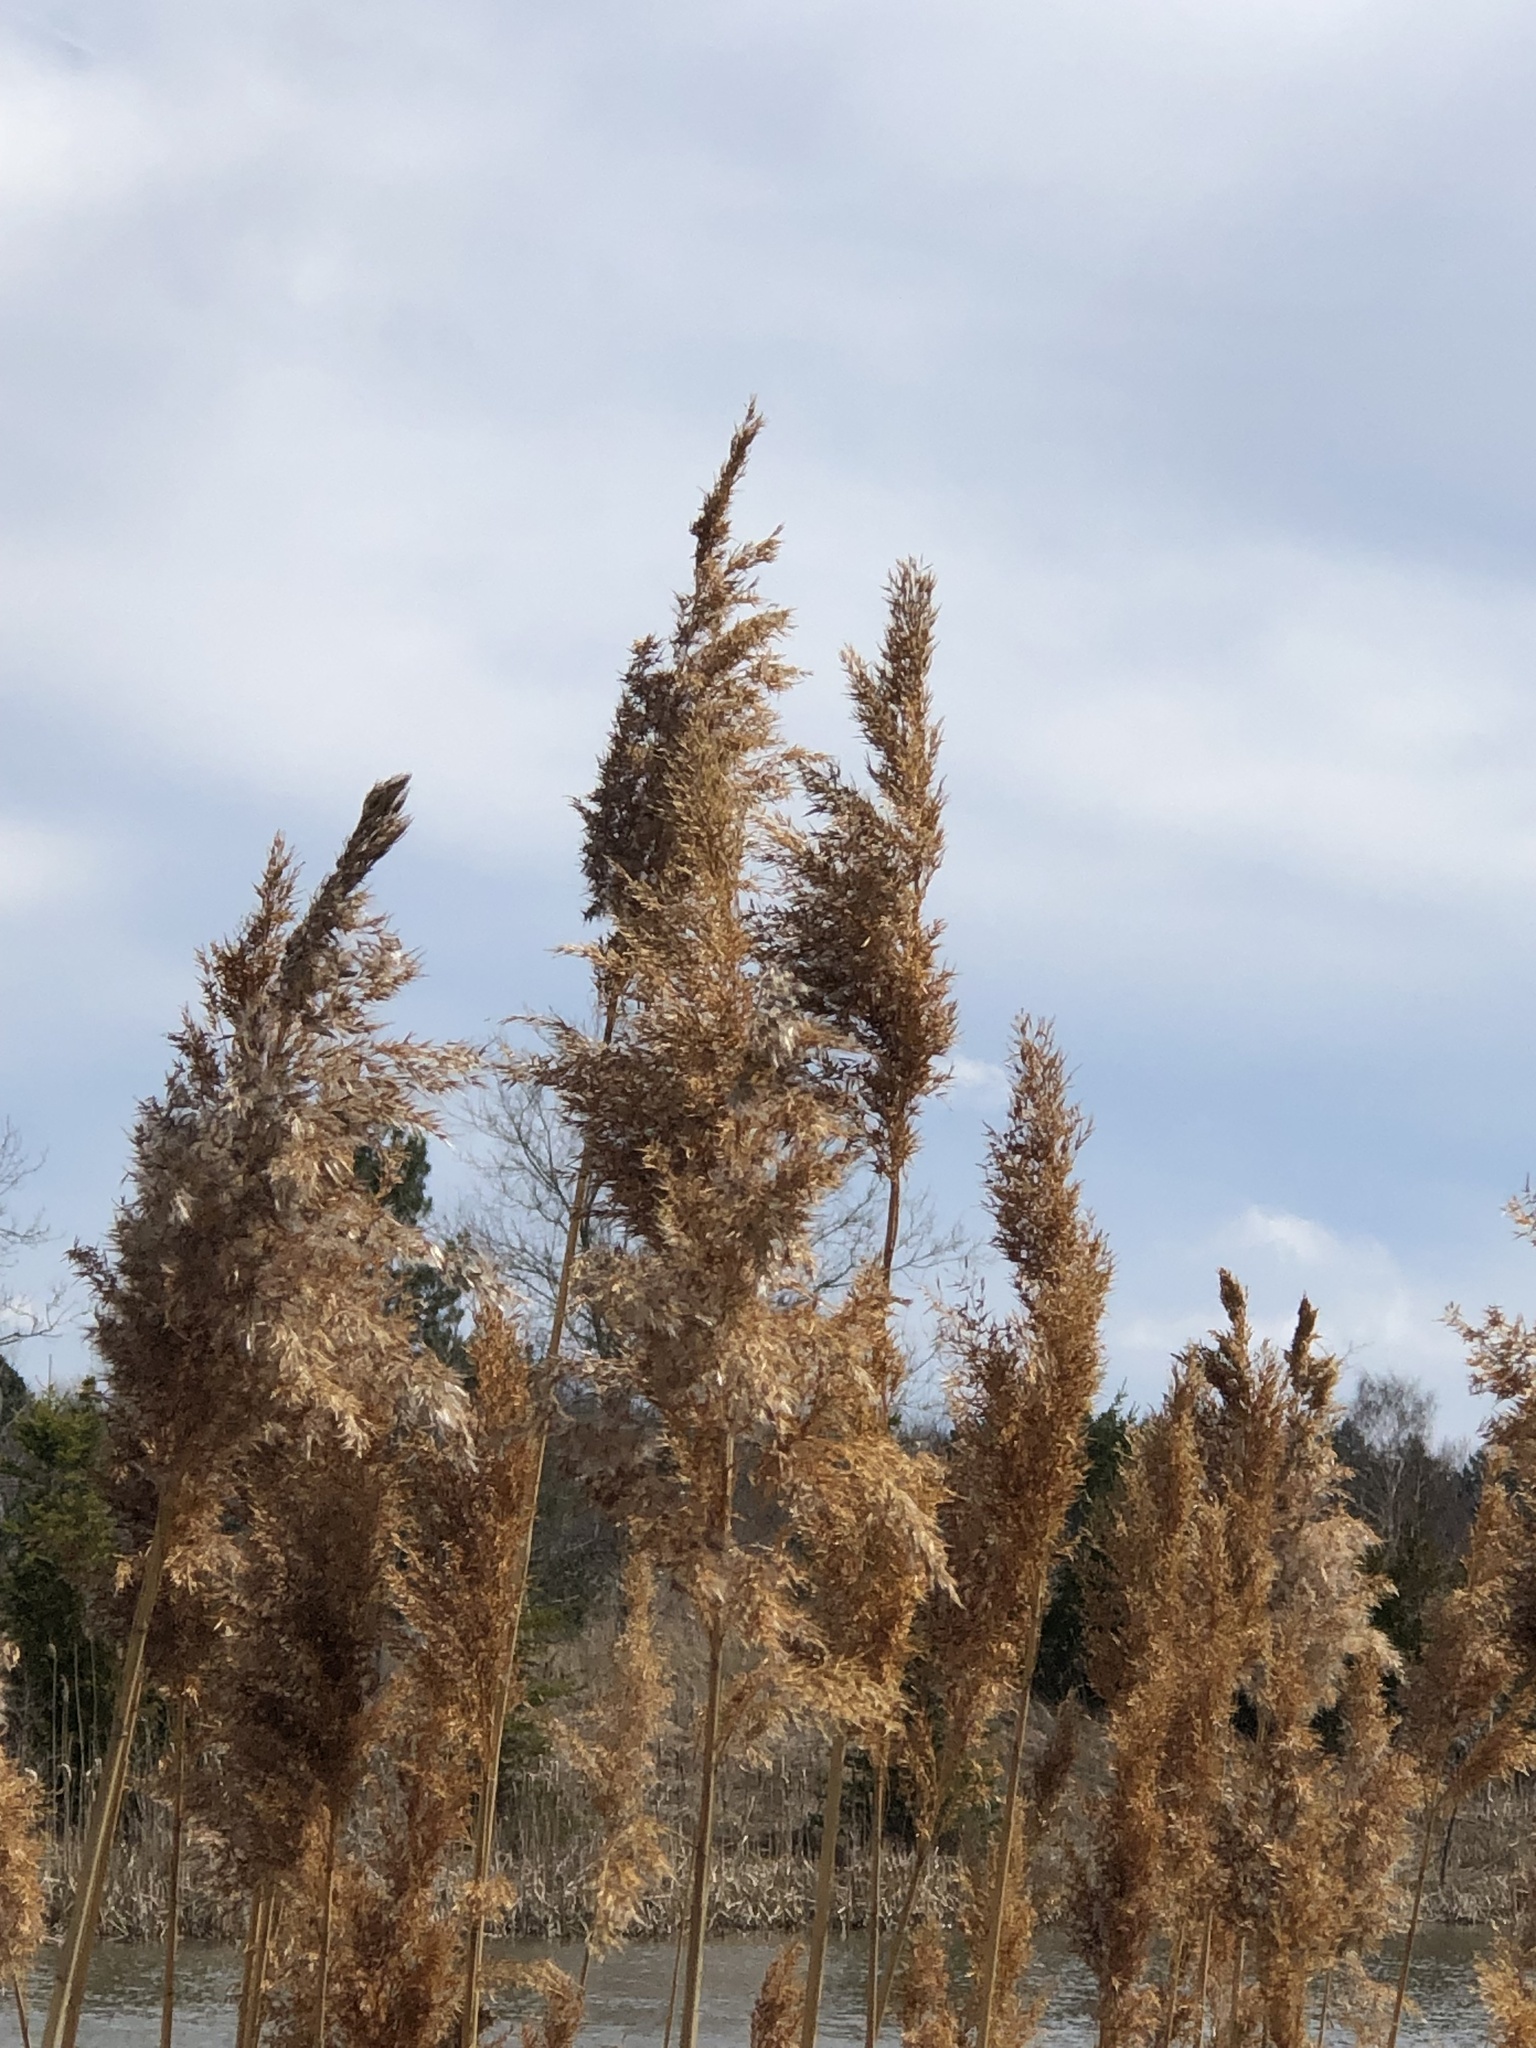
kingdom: Plantae
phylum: Tracheophyta
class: Liliopsida
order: Poales
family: Poaceae
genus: Phragmites
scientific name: Phragmites australis
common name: Common reed
